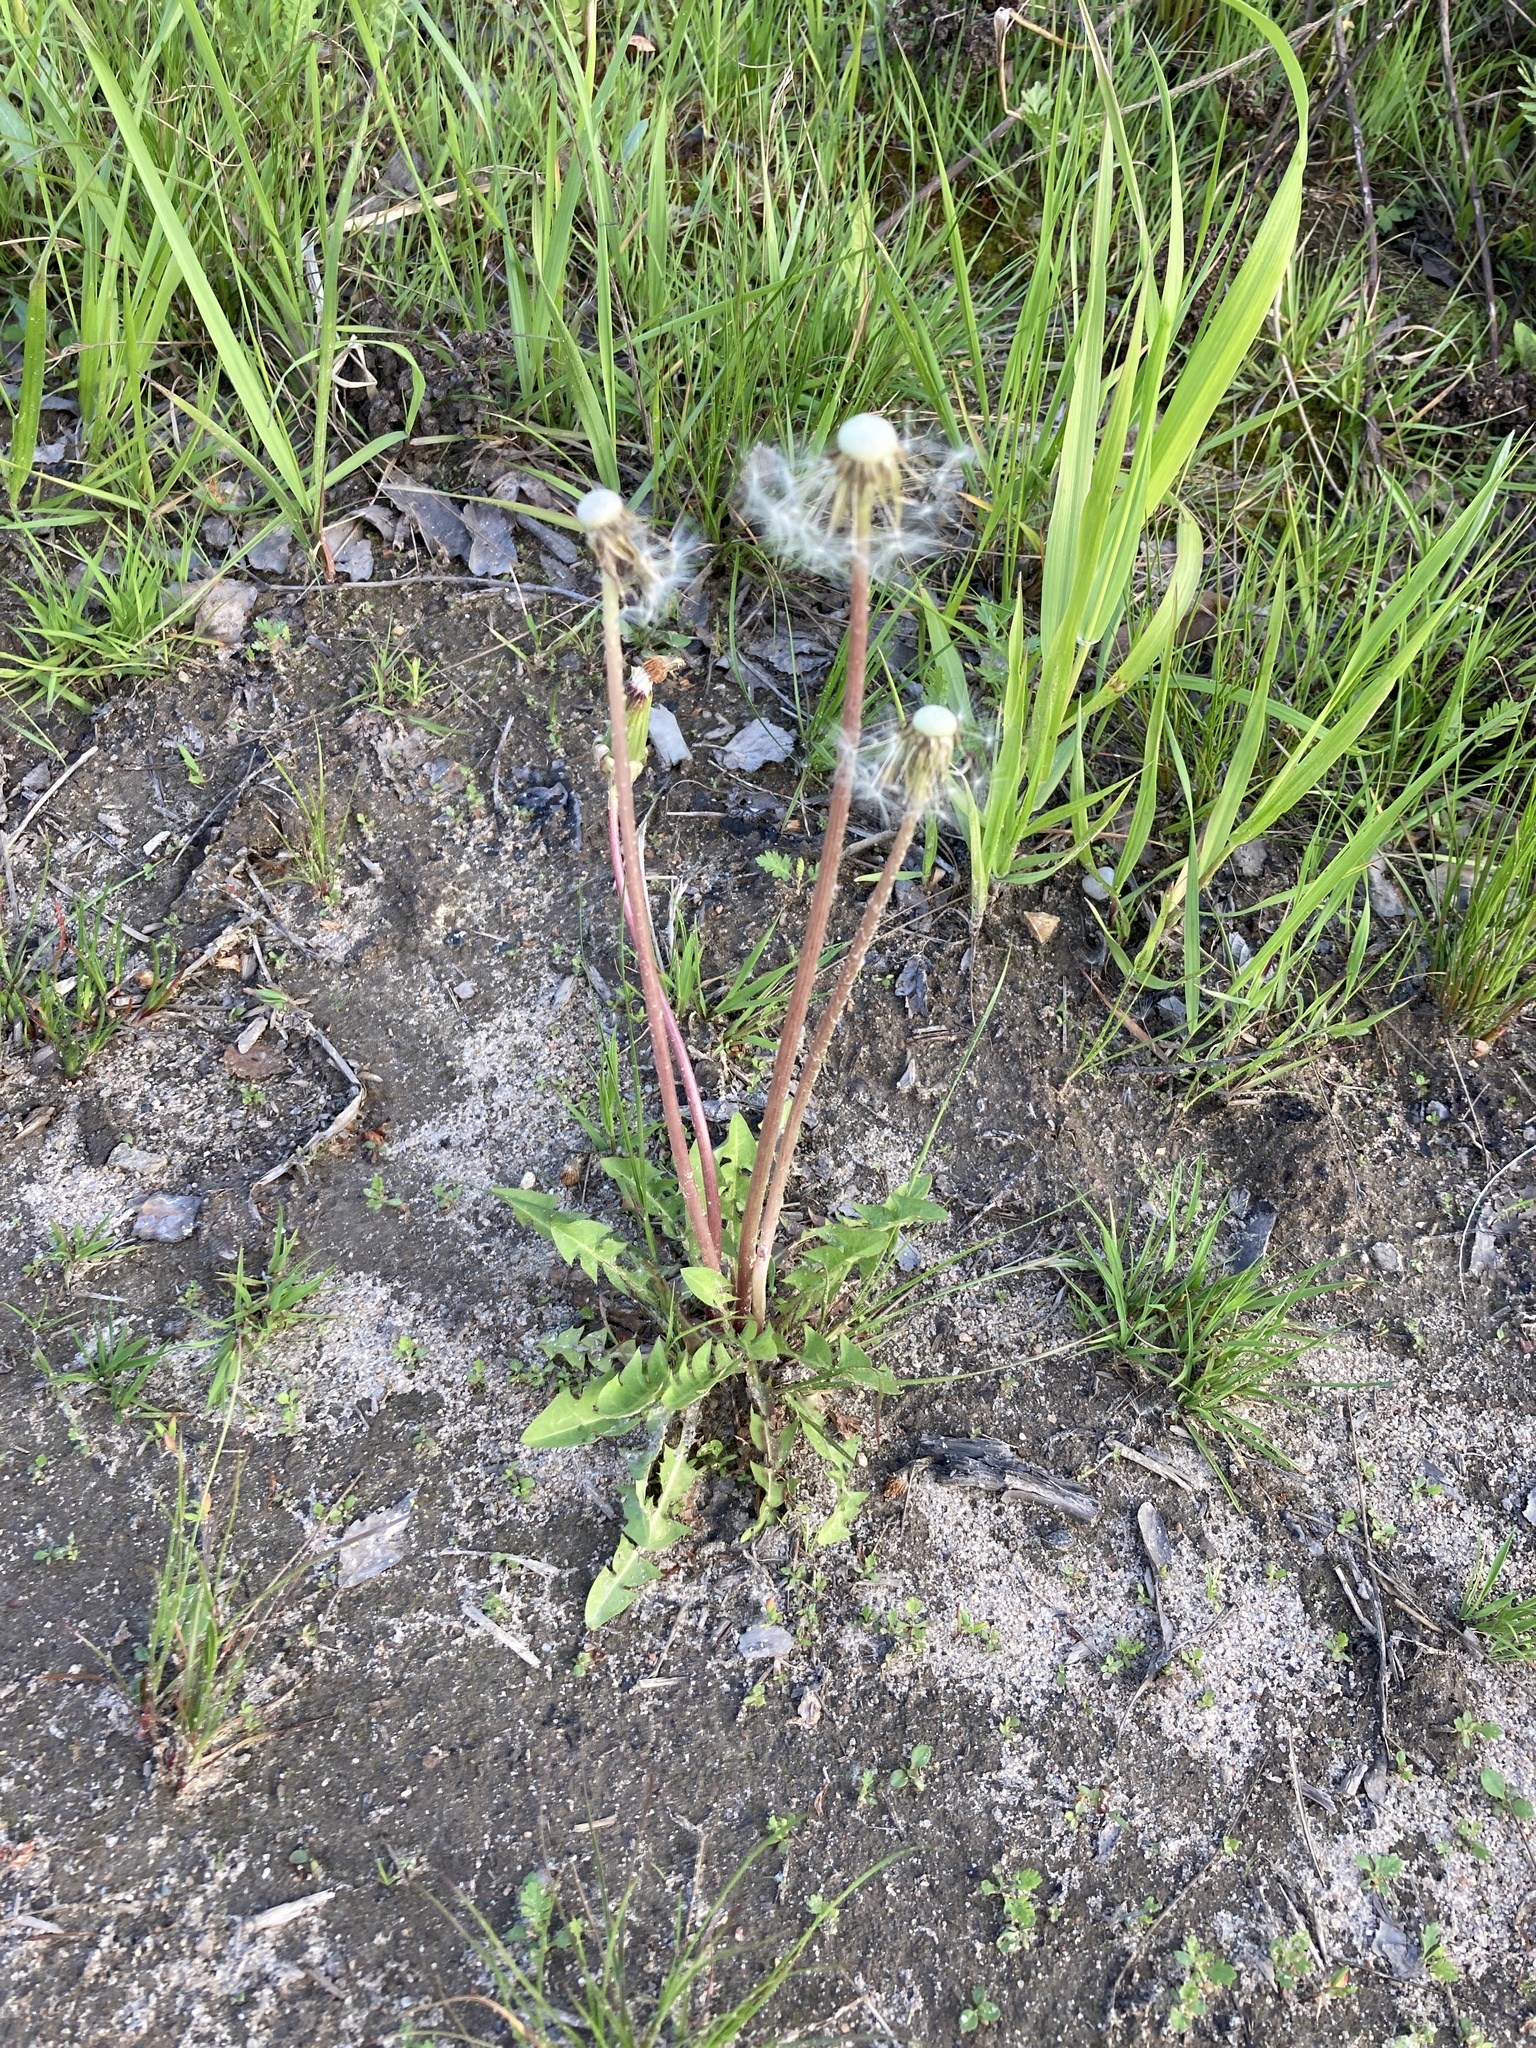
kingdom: Plantae
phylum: Tracheophyta
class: Magnoliopsida
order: Asterales
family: Asteraceae
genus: Taraxacum
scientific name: Taraxacum officinale
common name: Common dandelion
